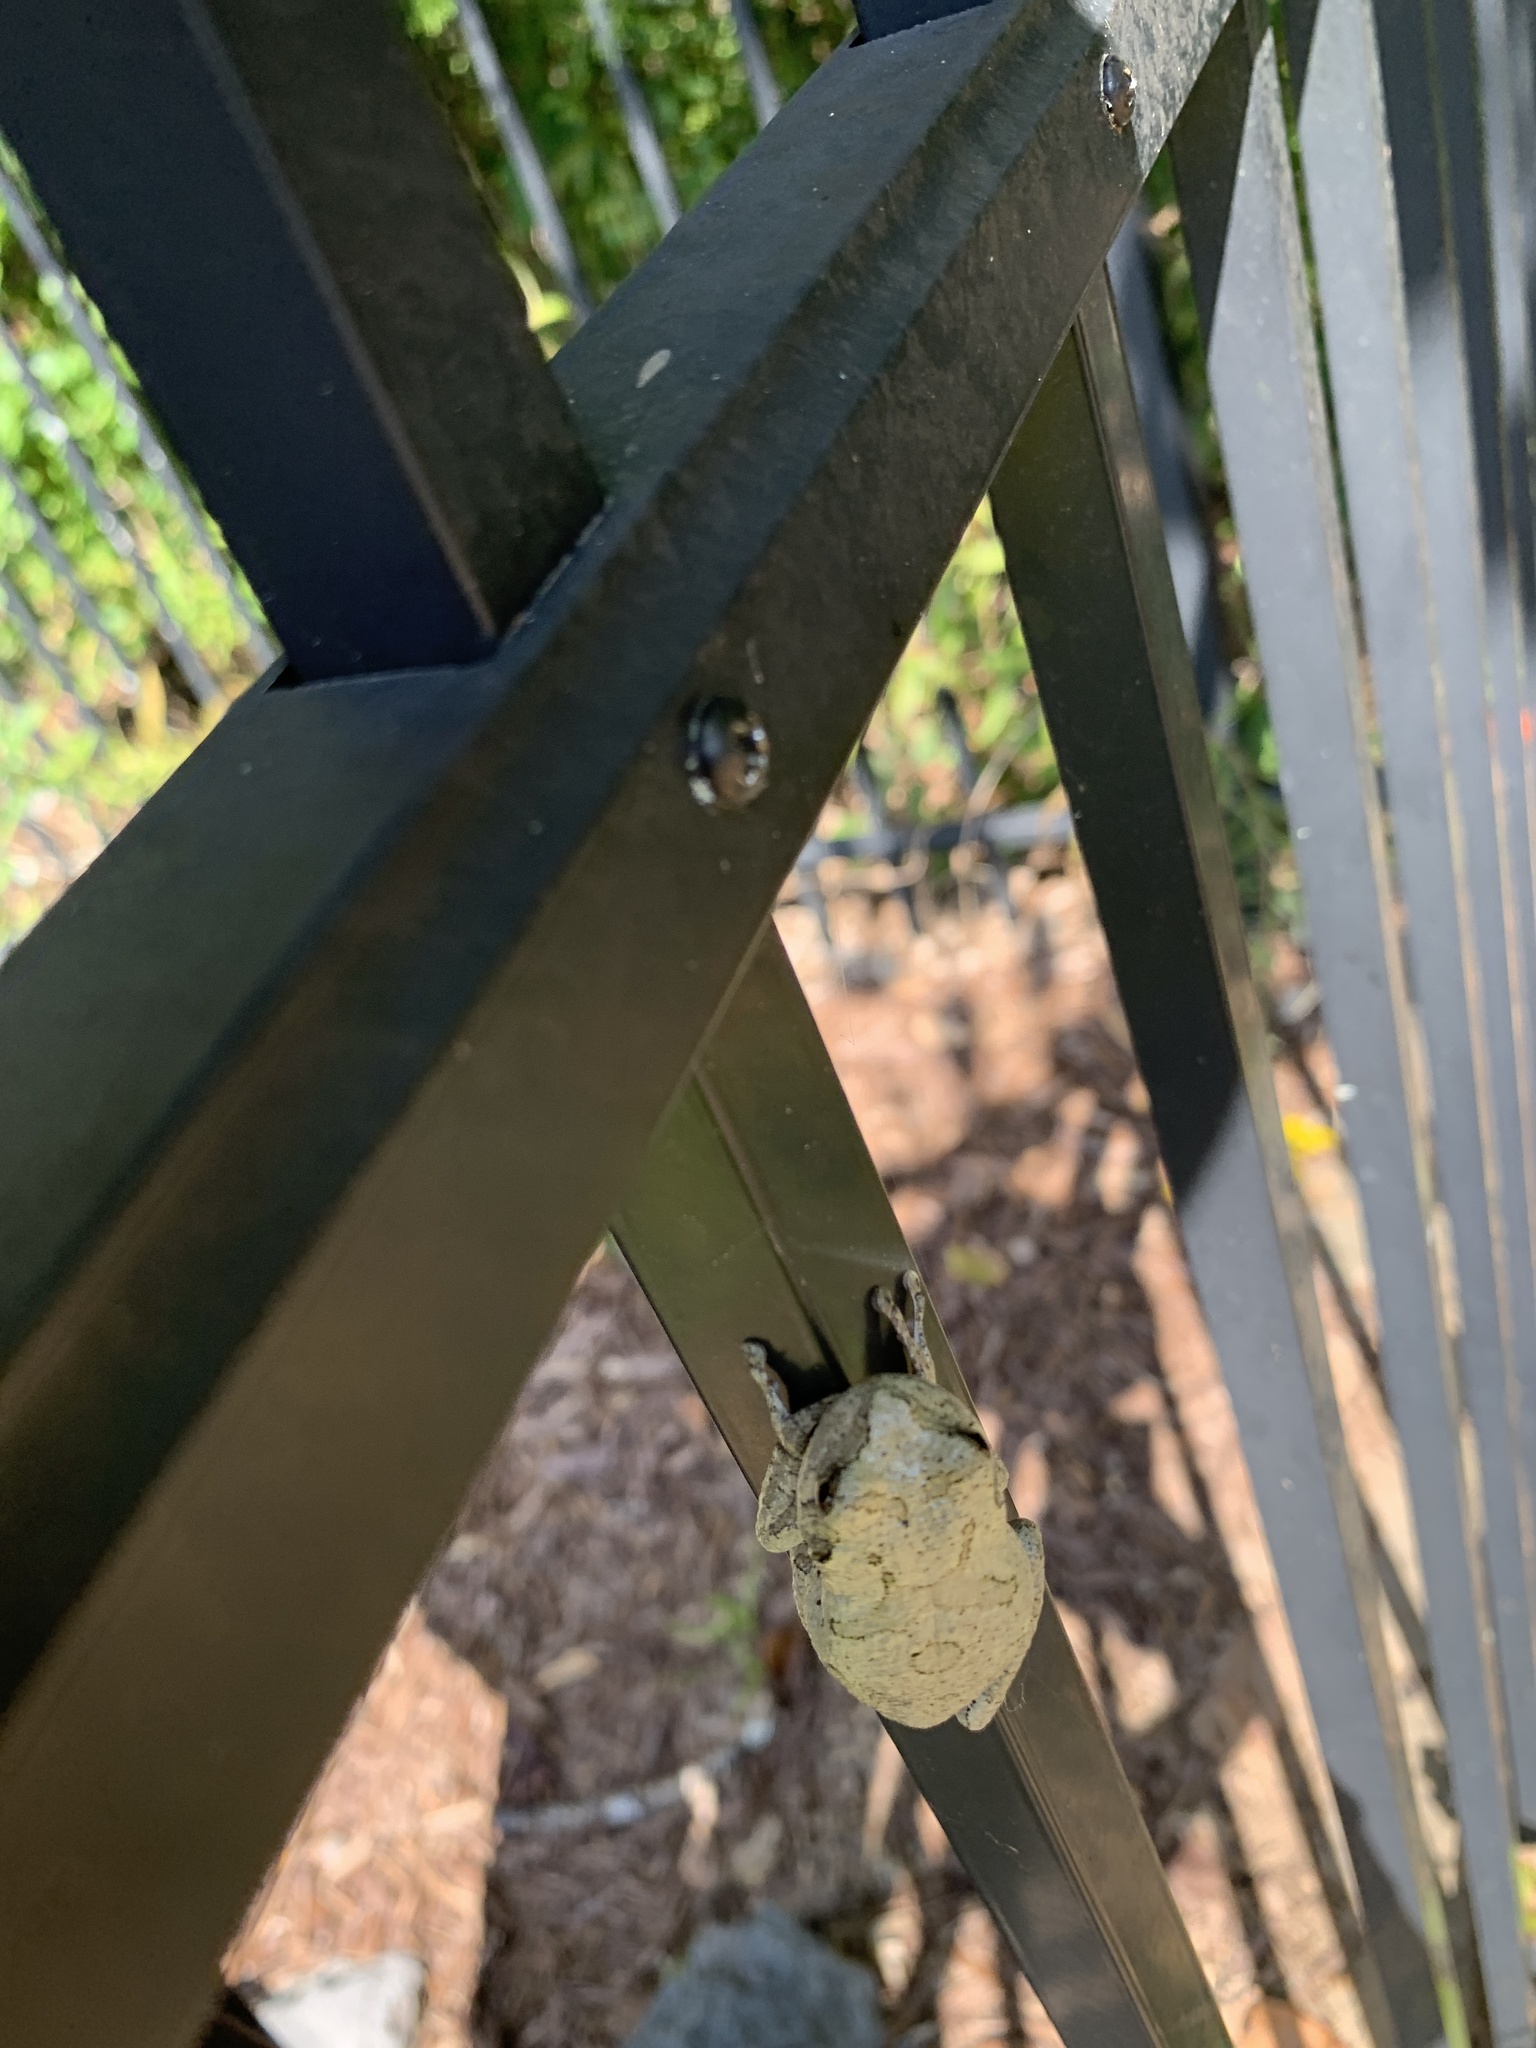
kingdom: Animalia
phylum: Chordata
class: Amphibia
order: Anura
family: Hylidae
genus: Dryophytes
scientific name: Dryophytes chrysoscelis
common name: Cope's gray treefrog
